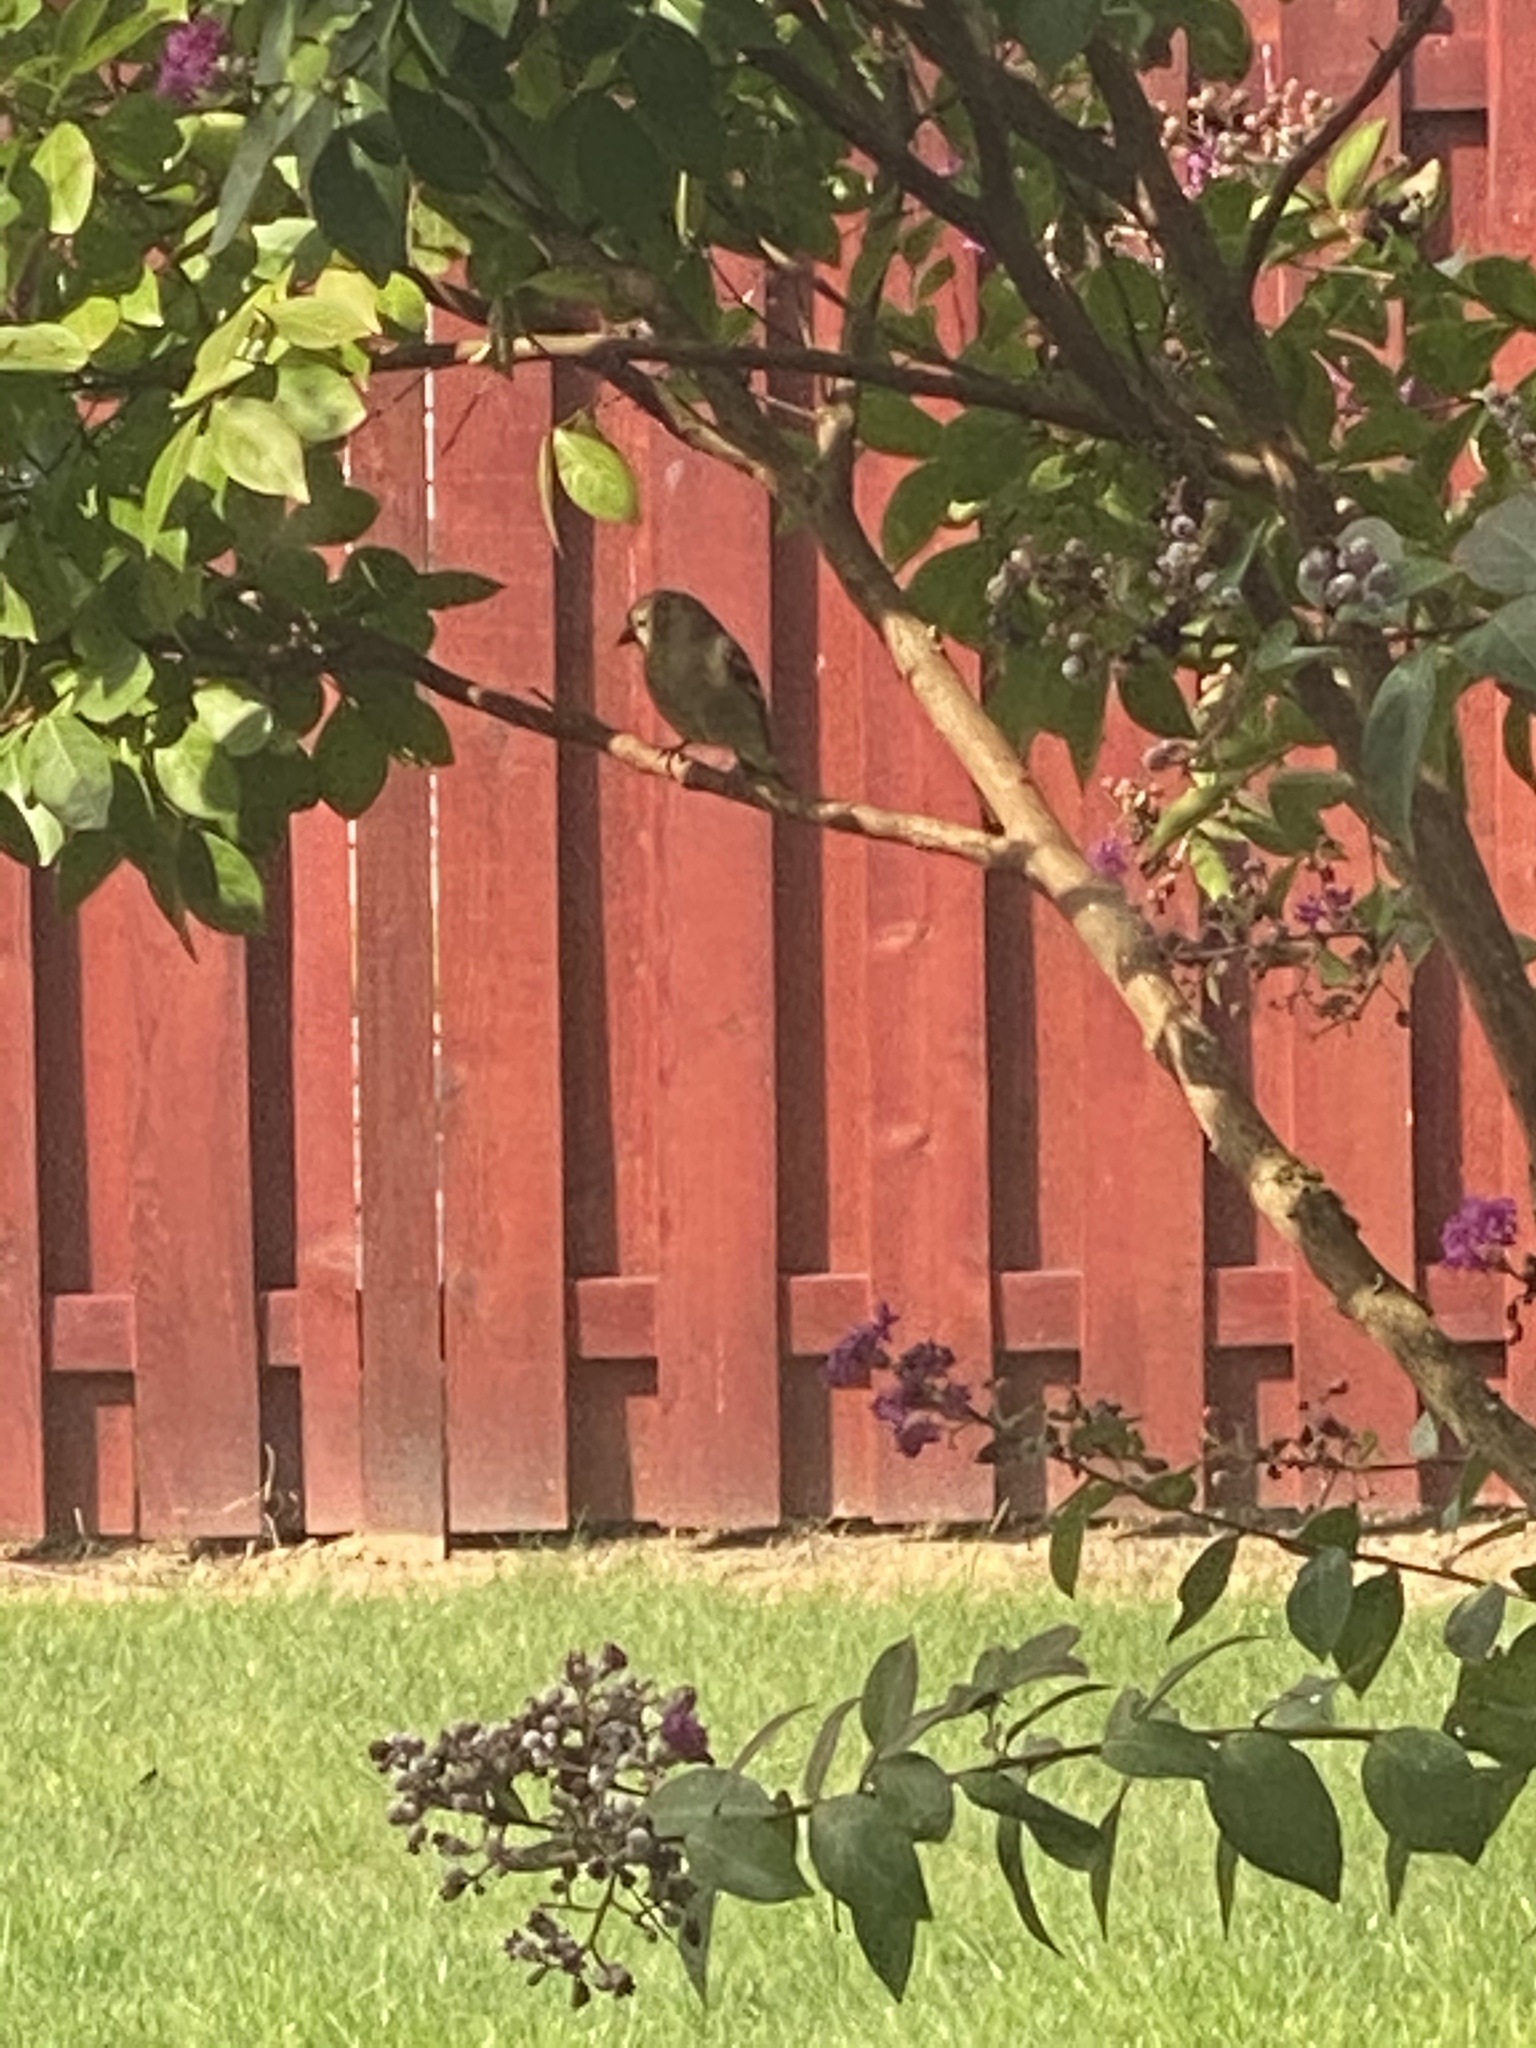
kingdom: Animalia
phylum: Chordata
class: Aves
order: Passeriformes
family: Fringillidae
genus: Spinus
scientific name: Spinus tristis
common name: American goldfinch
